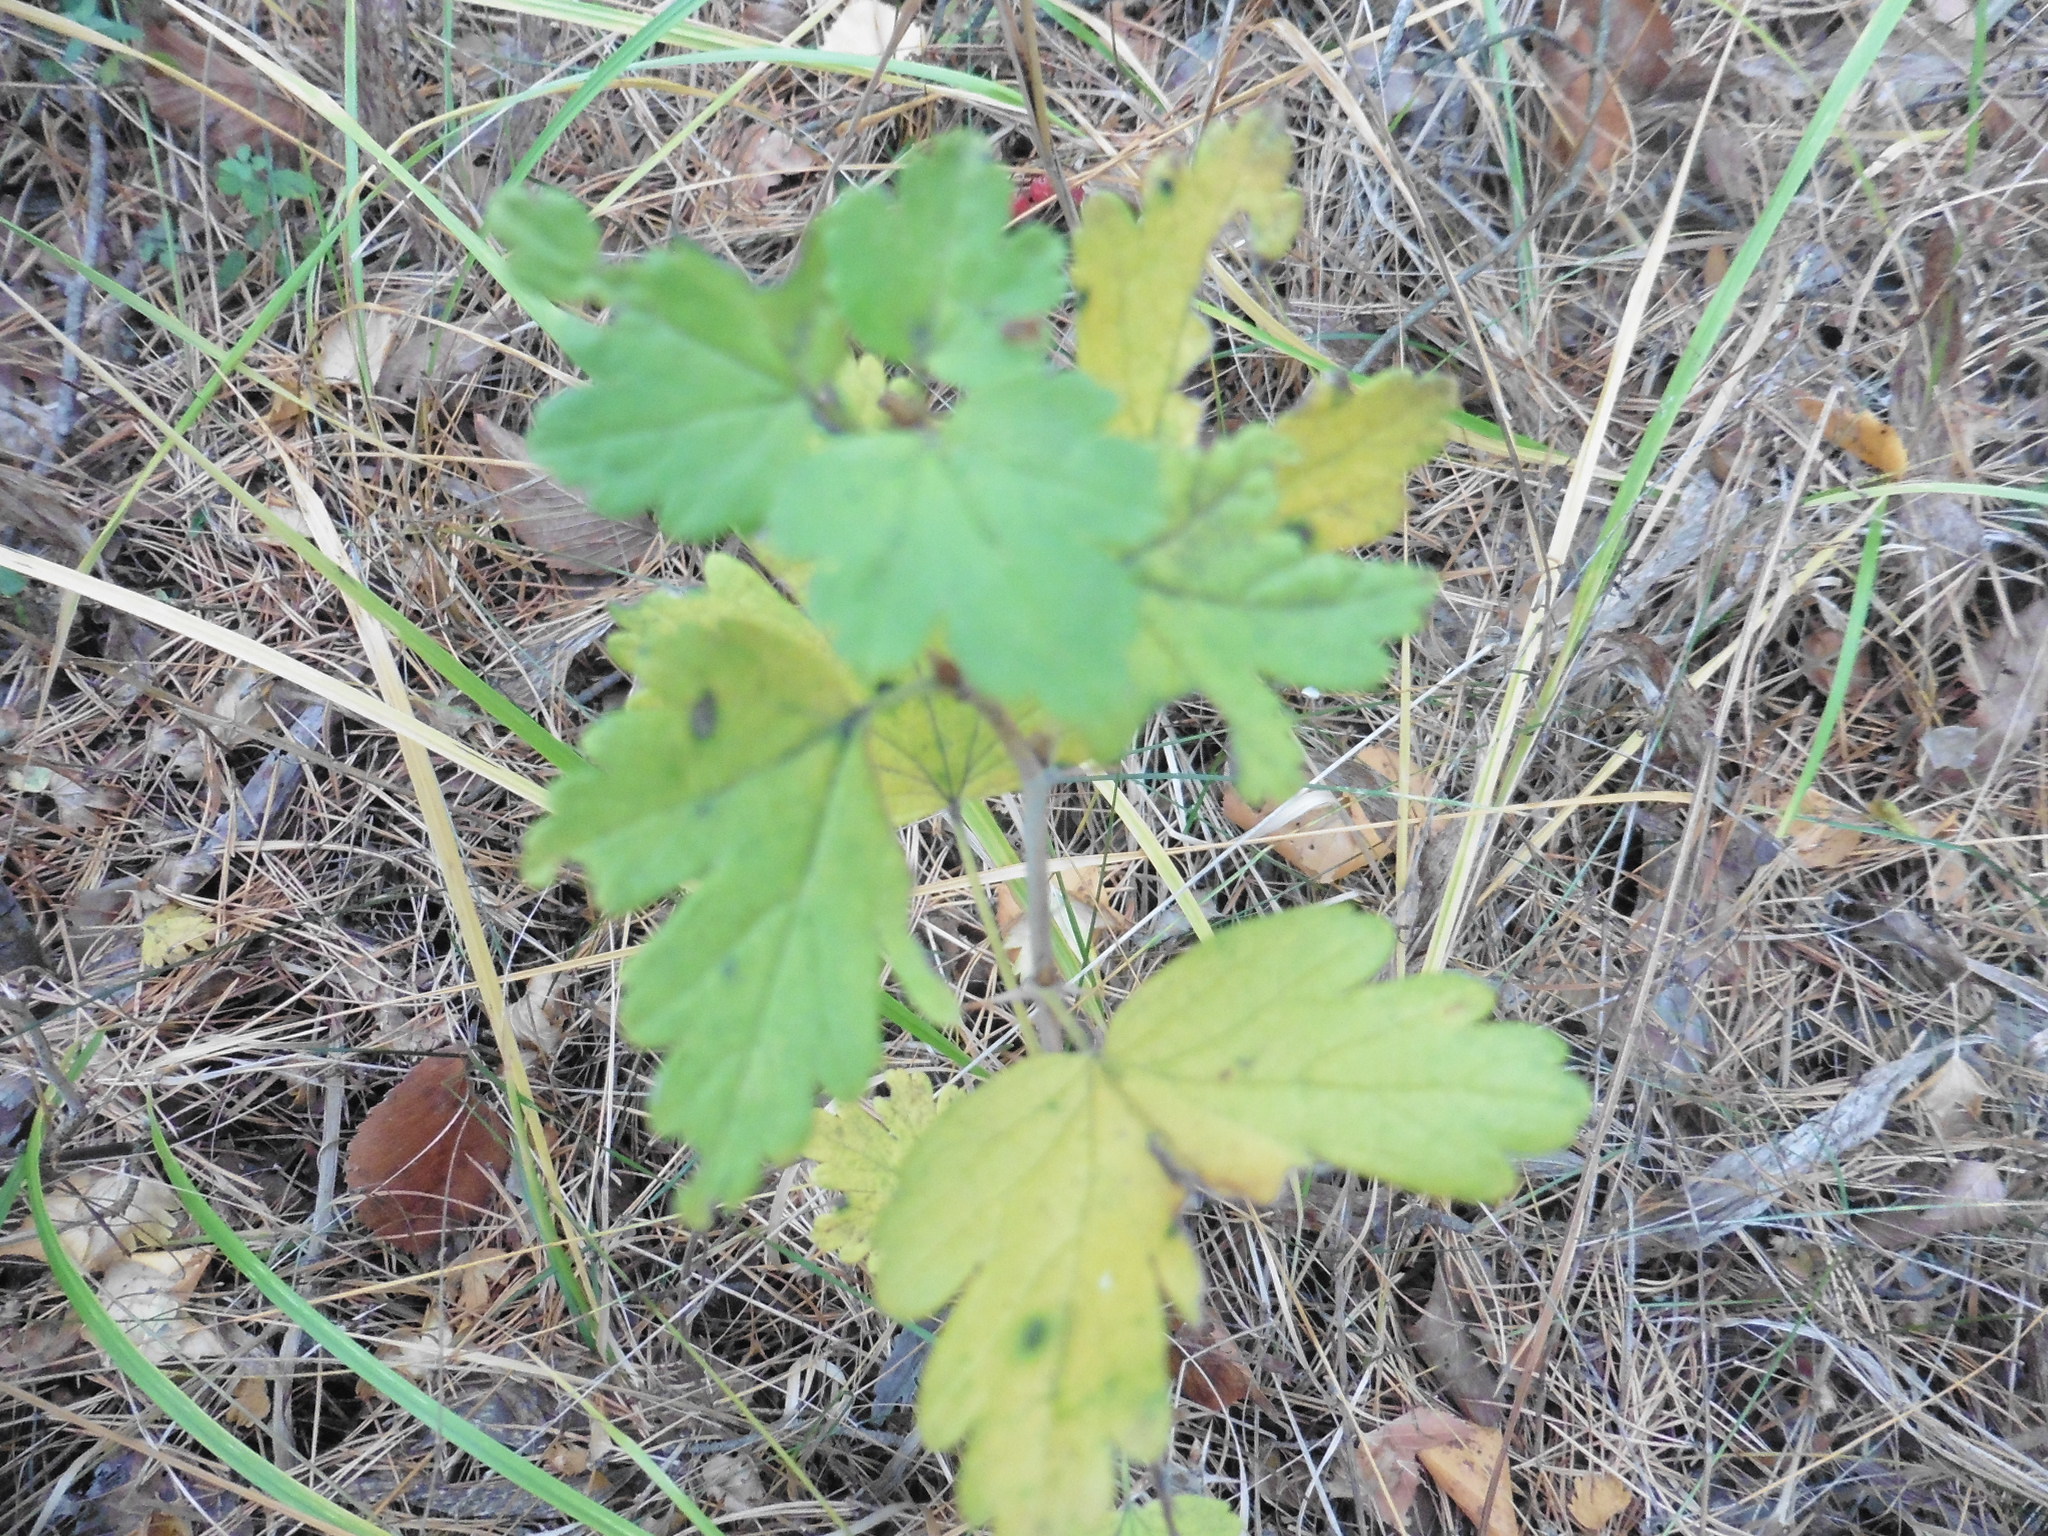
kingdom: Plantae
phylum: Tracheophyta
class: Magnoliopsida
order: Saxifragales
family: Grossulariaceae
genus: Ribes
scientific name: Ribes uva-crispa
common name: Gooseberry
